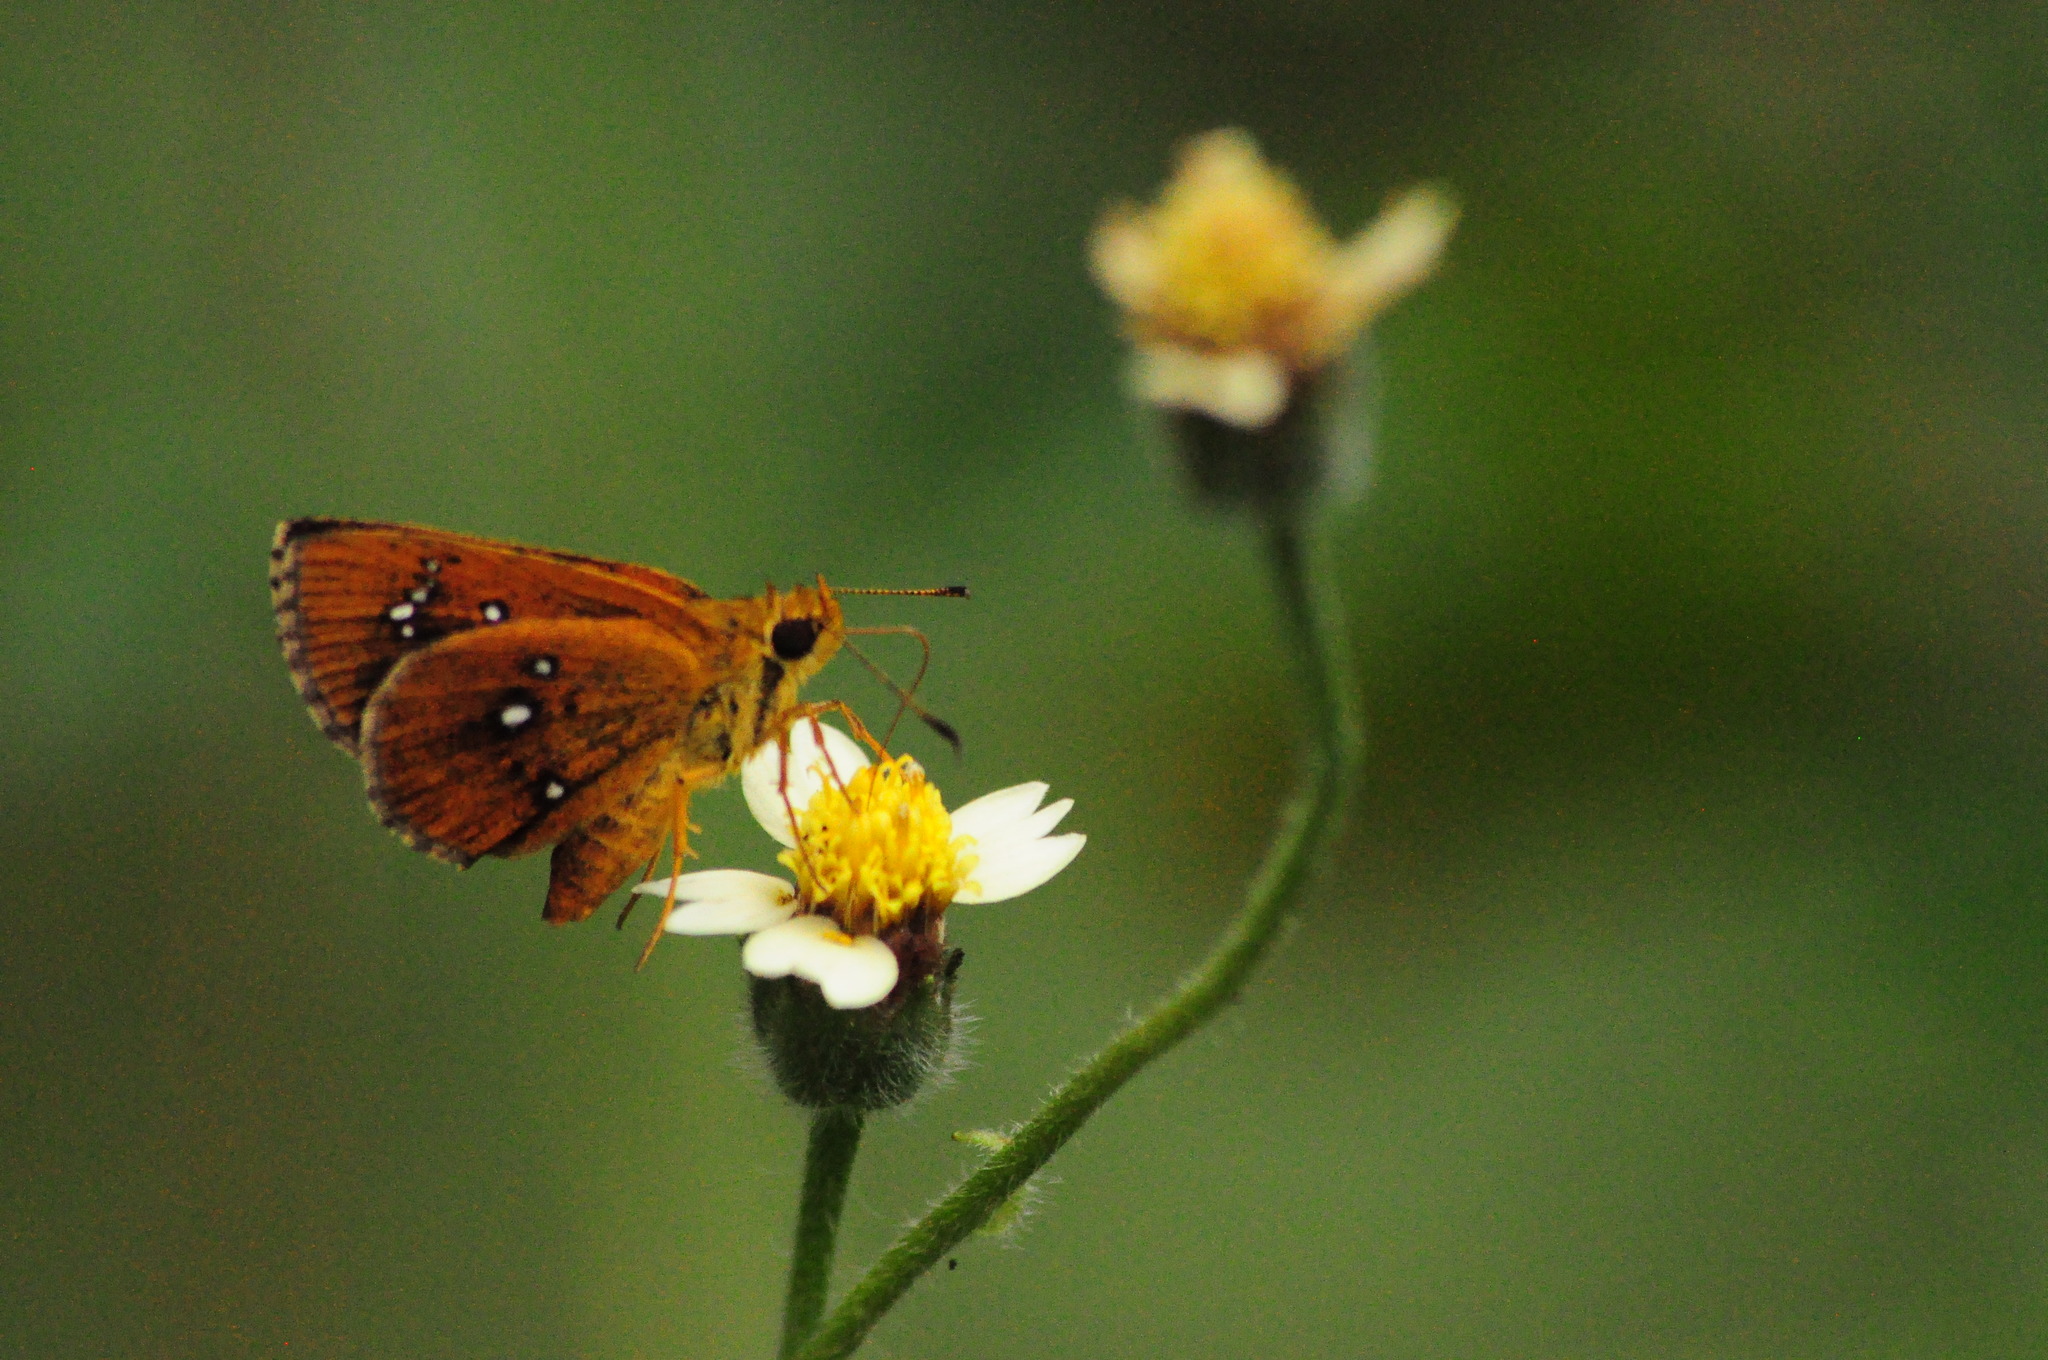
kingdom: Animalia
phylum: Arthropoda
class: Insecta
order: Lepidoptera
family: Hesperiidae
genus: Iambrix
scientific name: Iambrix salsala
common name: Chestnut bob
